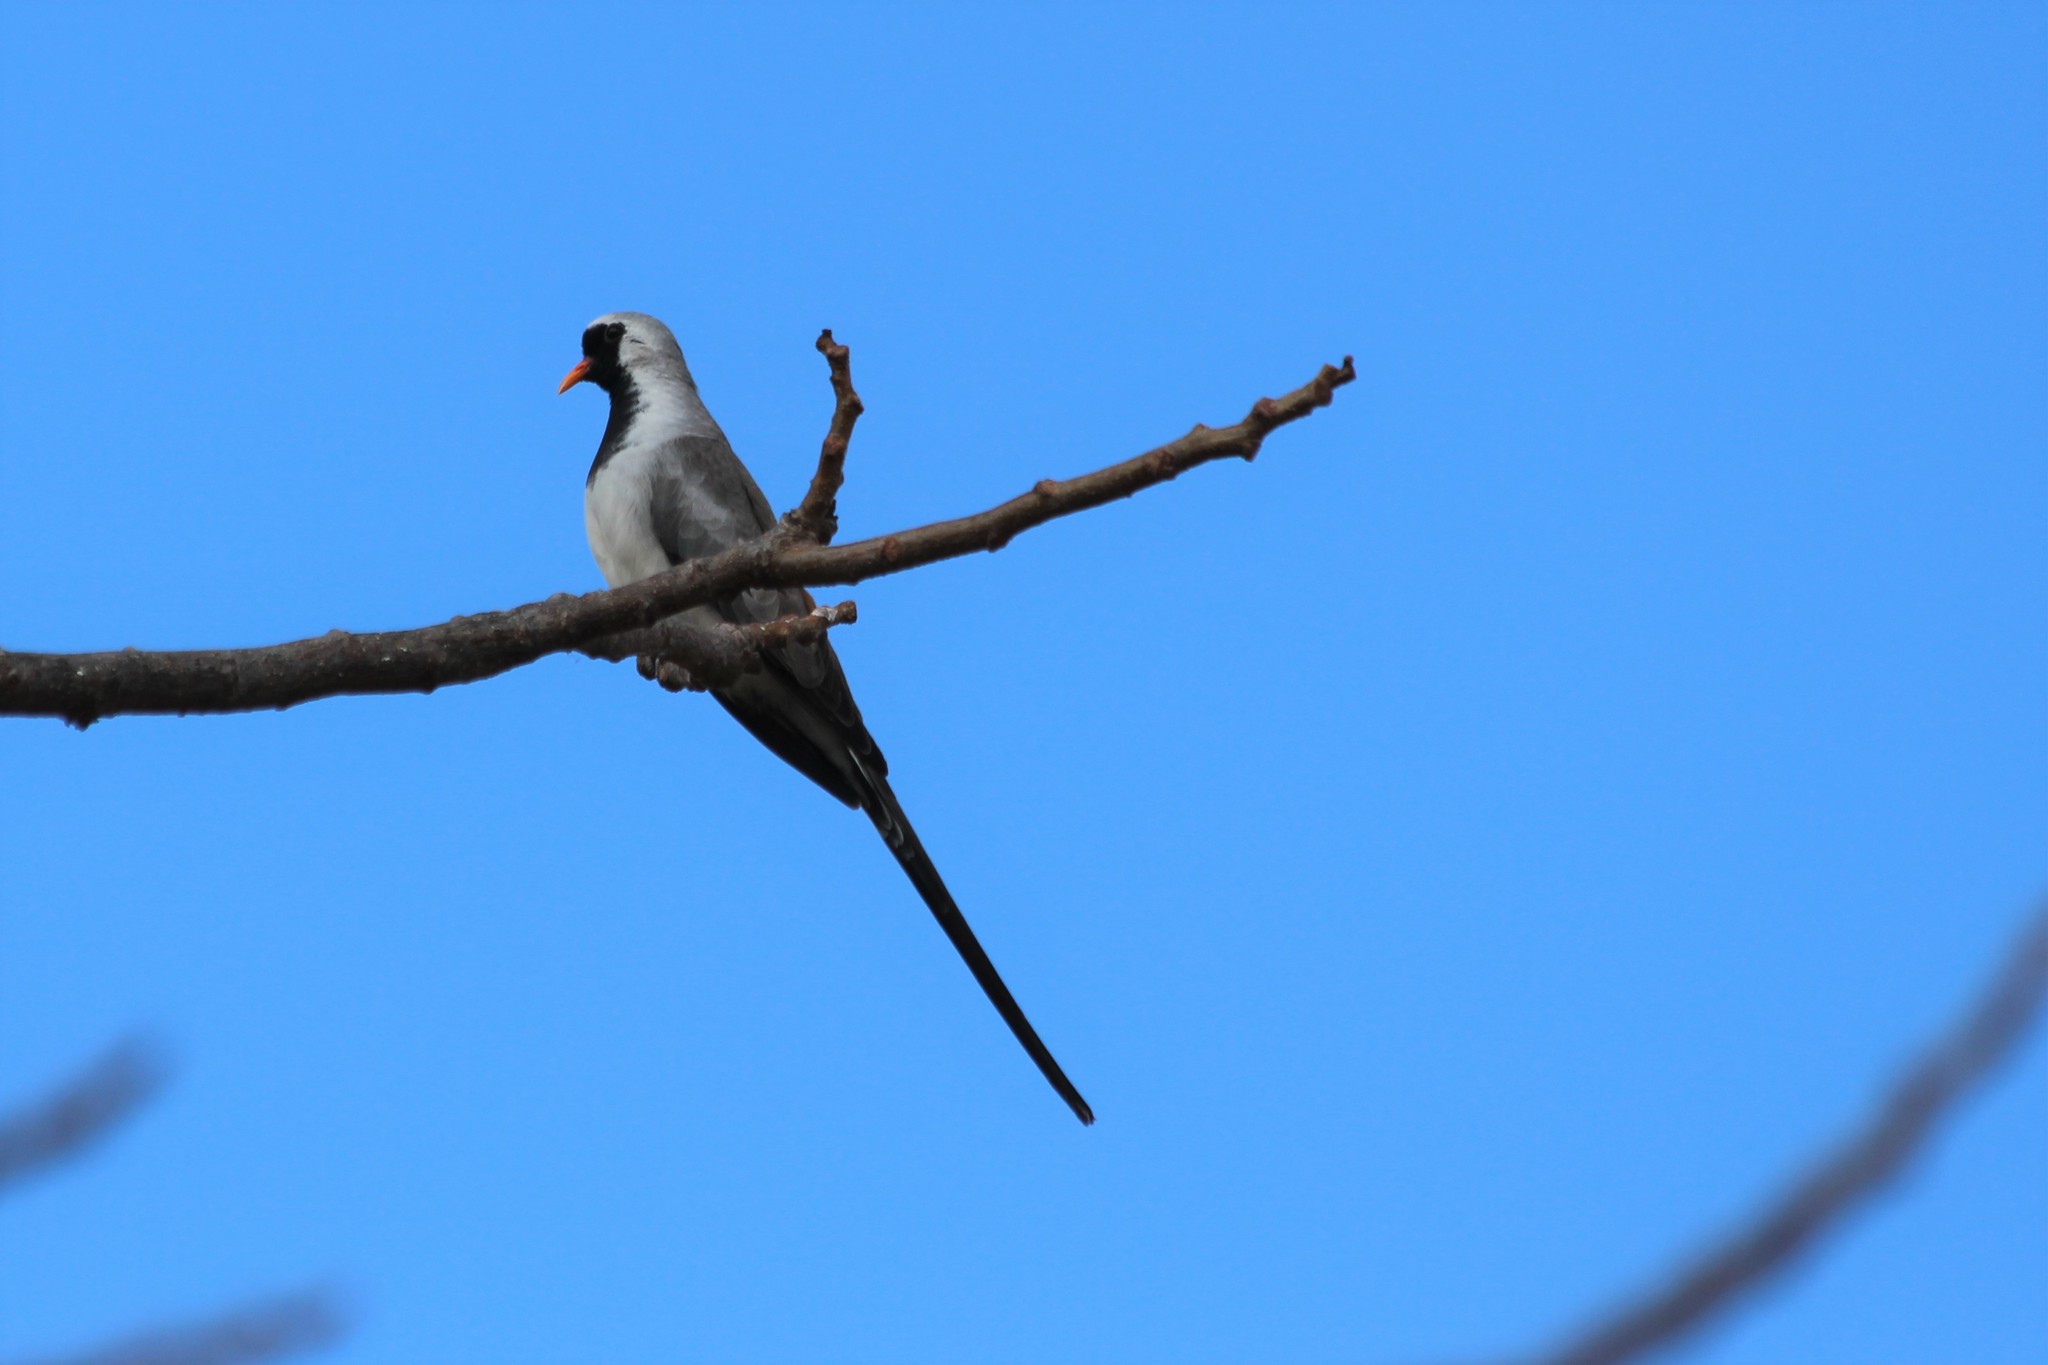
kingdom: Animalia
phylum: Chordata
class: Aves
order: Columbiformes
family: Columbidae
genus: Oena
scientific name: Oena capensis
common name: Namaqua dove
